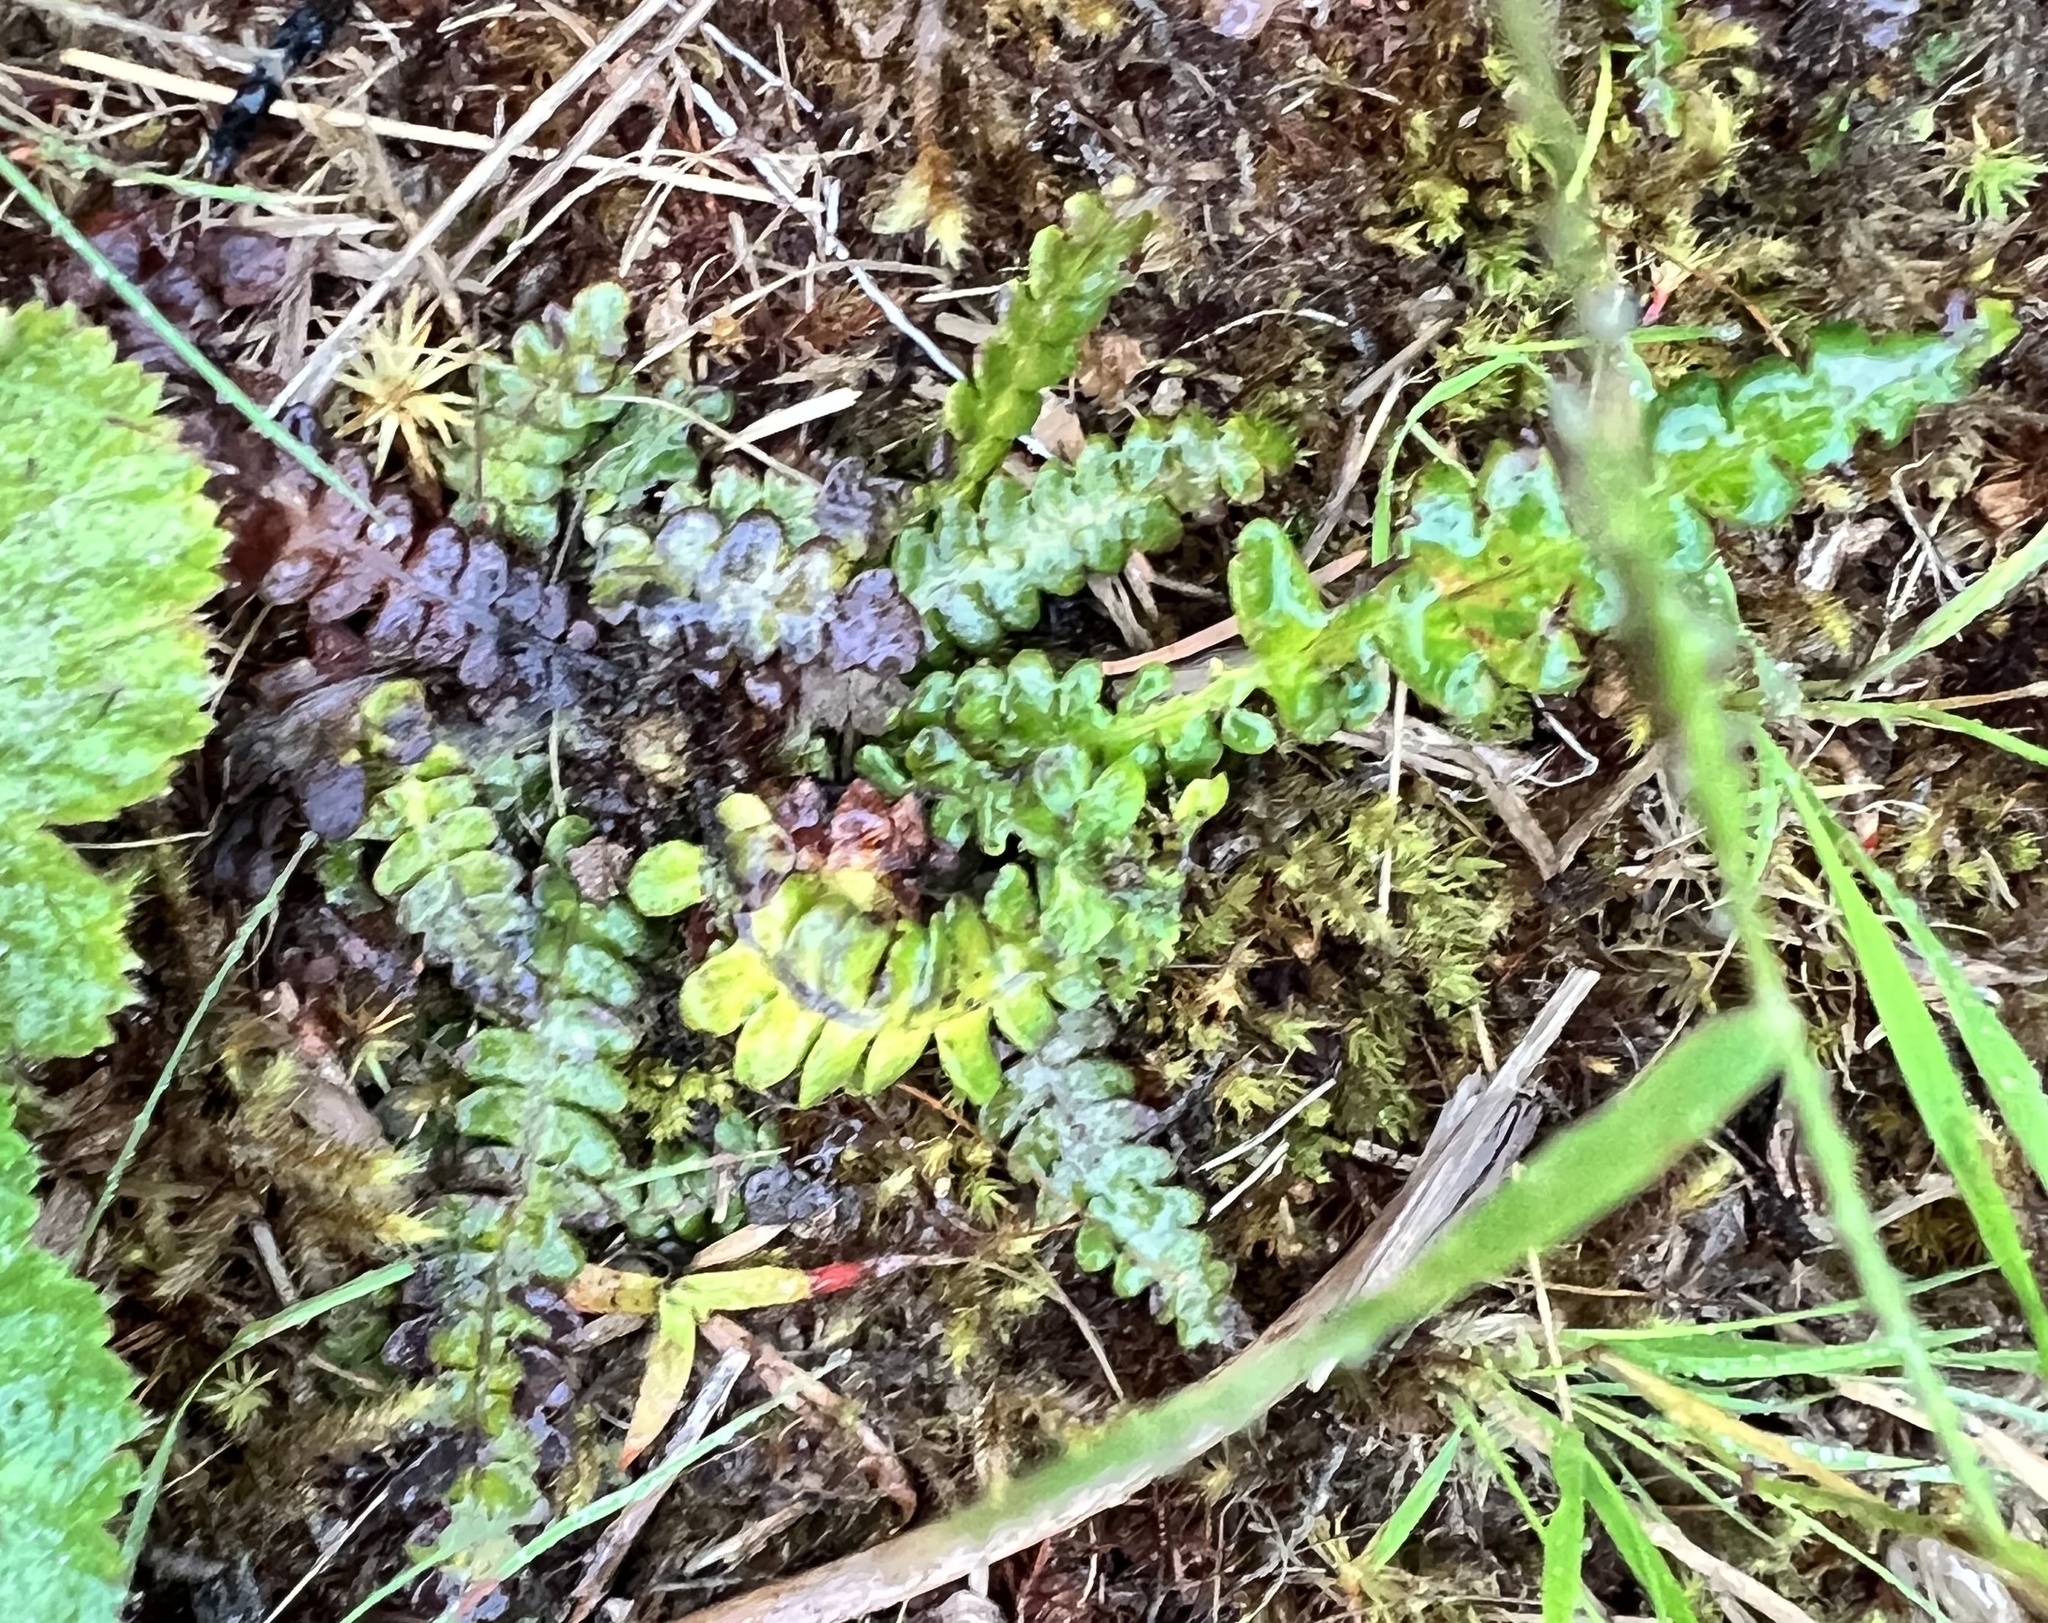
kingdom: Plantae
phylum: Tracheophyta
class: Polypodiopsida
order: Polypodiales
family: Blechnaceae
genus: Struthiopteris
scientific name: Struthiopteris spicant
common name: Deer fern
